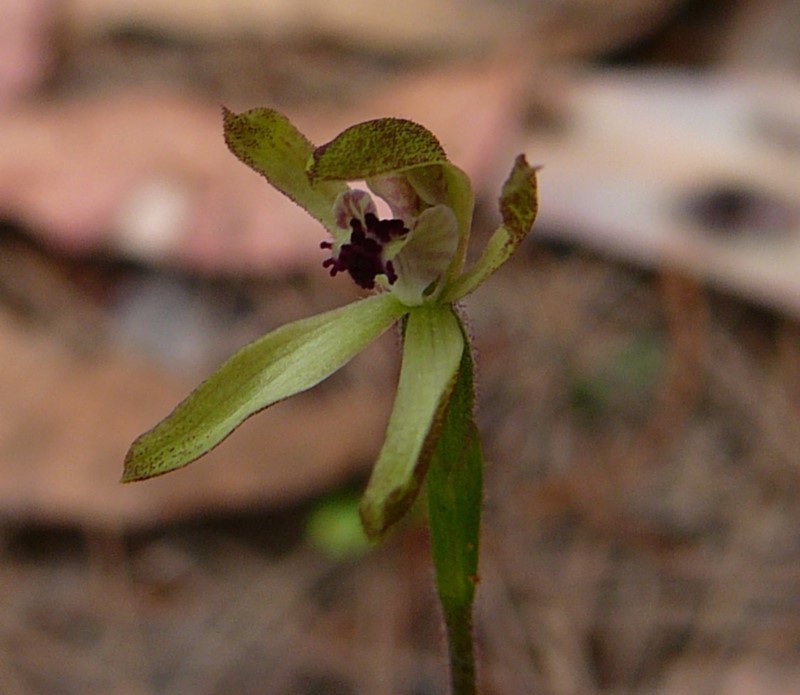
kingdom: Plantae
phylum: Tracheophyta
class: Liliopsida
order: Asparagales
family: Orchidaceae
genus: Caladenia
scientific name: Caladenia transitoria
